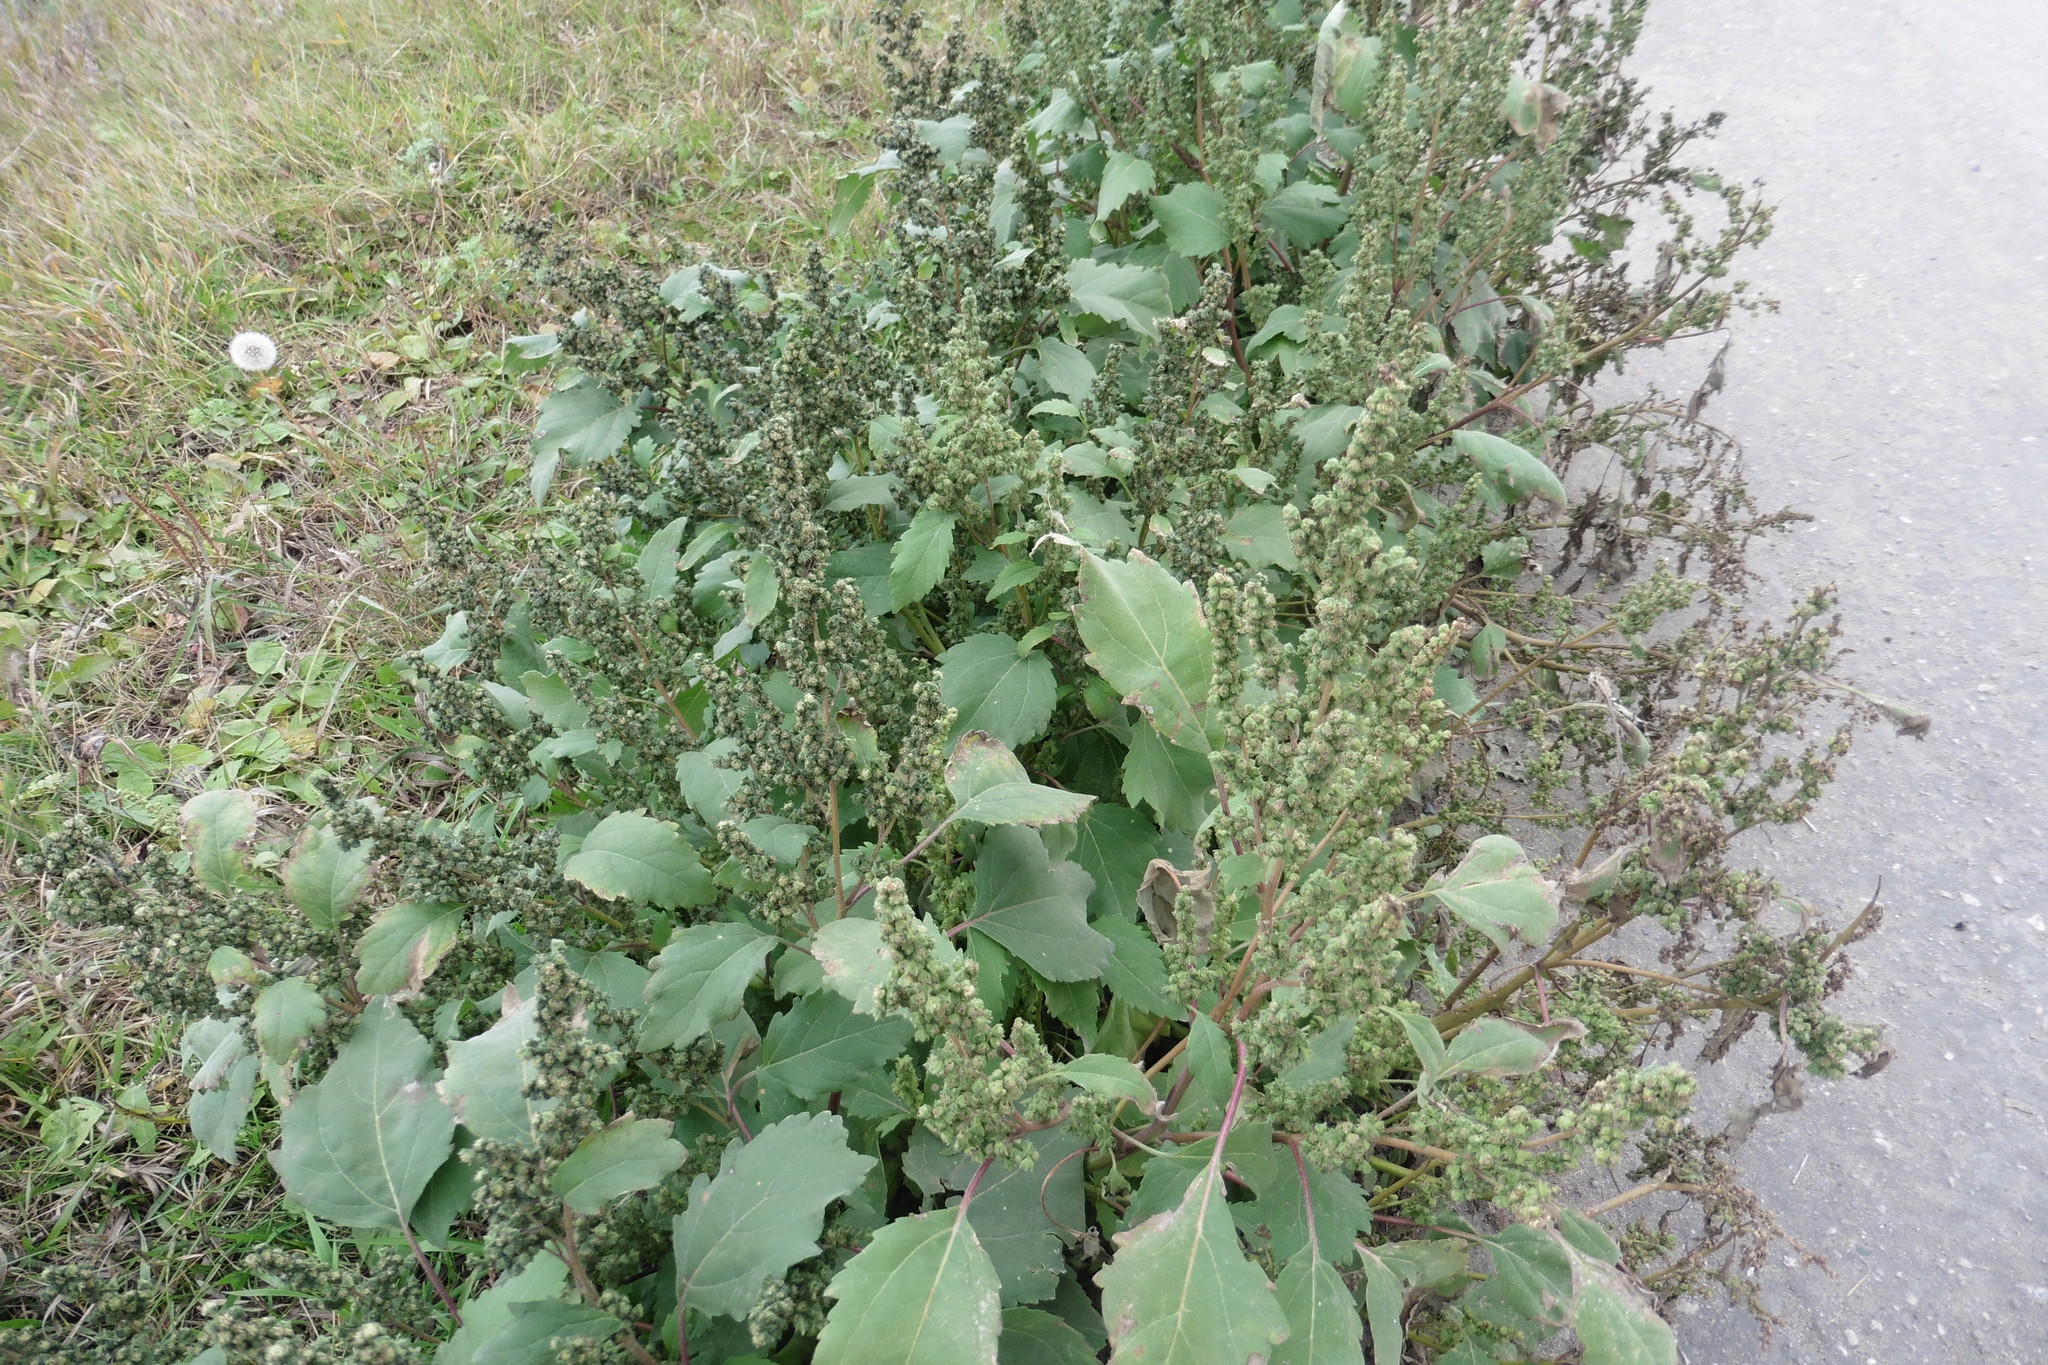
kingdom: Plantae
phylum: Tracheophyta
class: Magnoliopsida
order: Asterales
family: Asteraceae
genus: Cyclachaena
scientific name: Cyclachaena xanthiifolia
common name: Giant sumpweed
